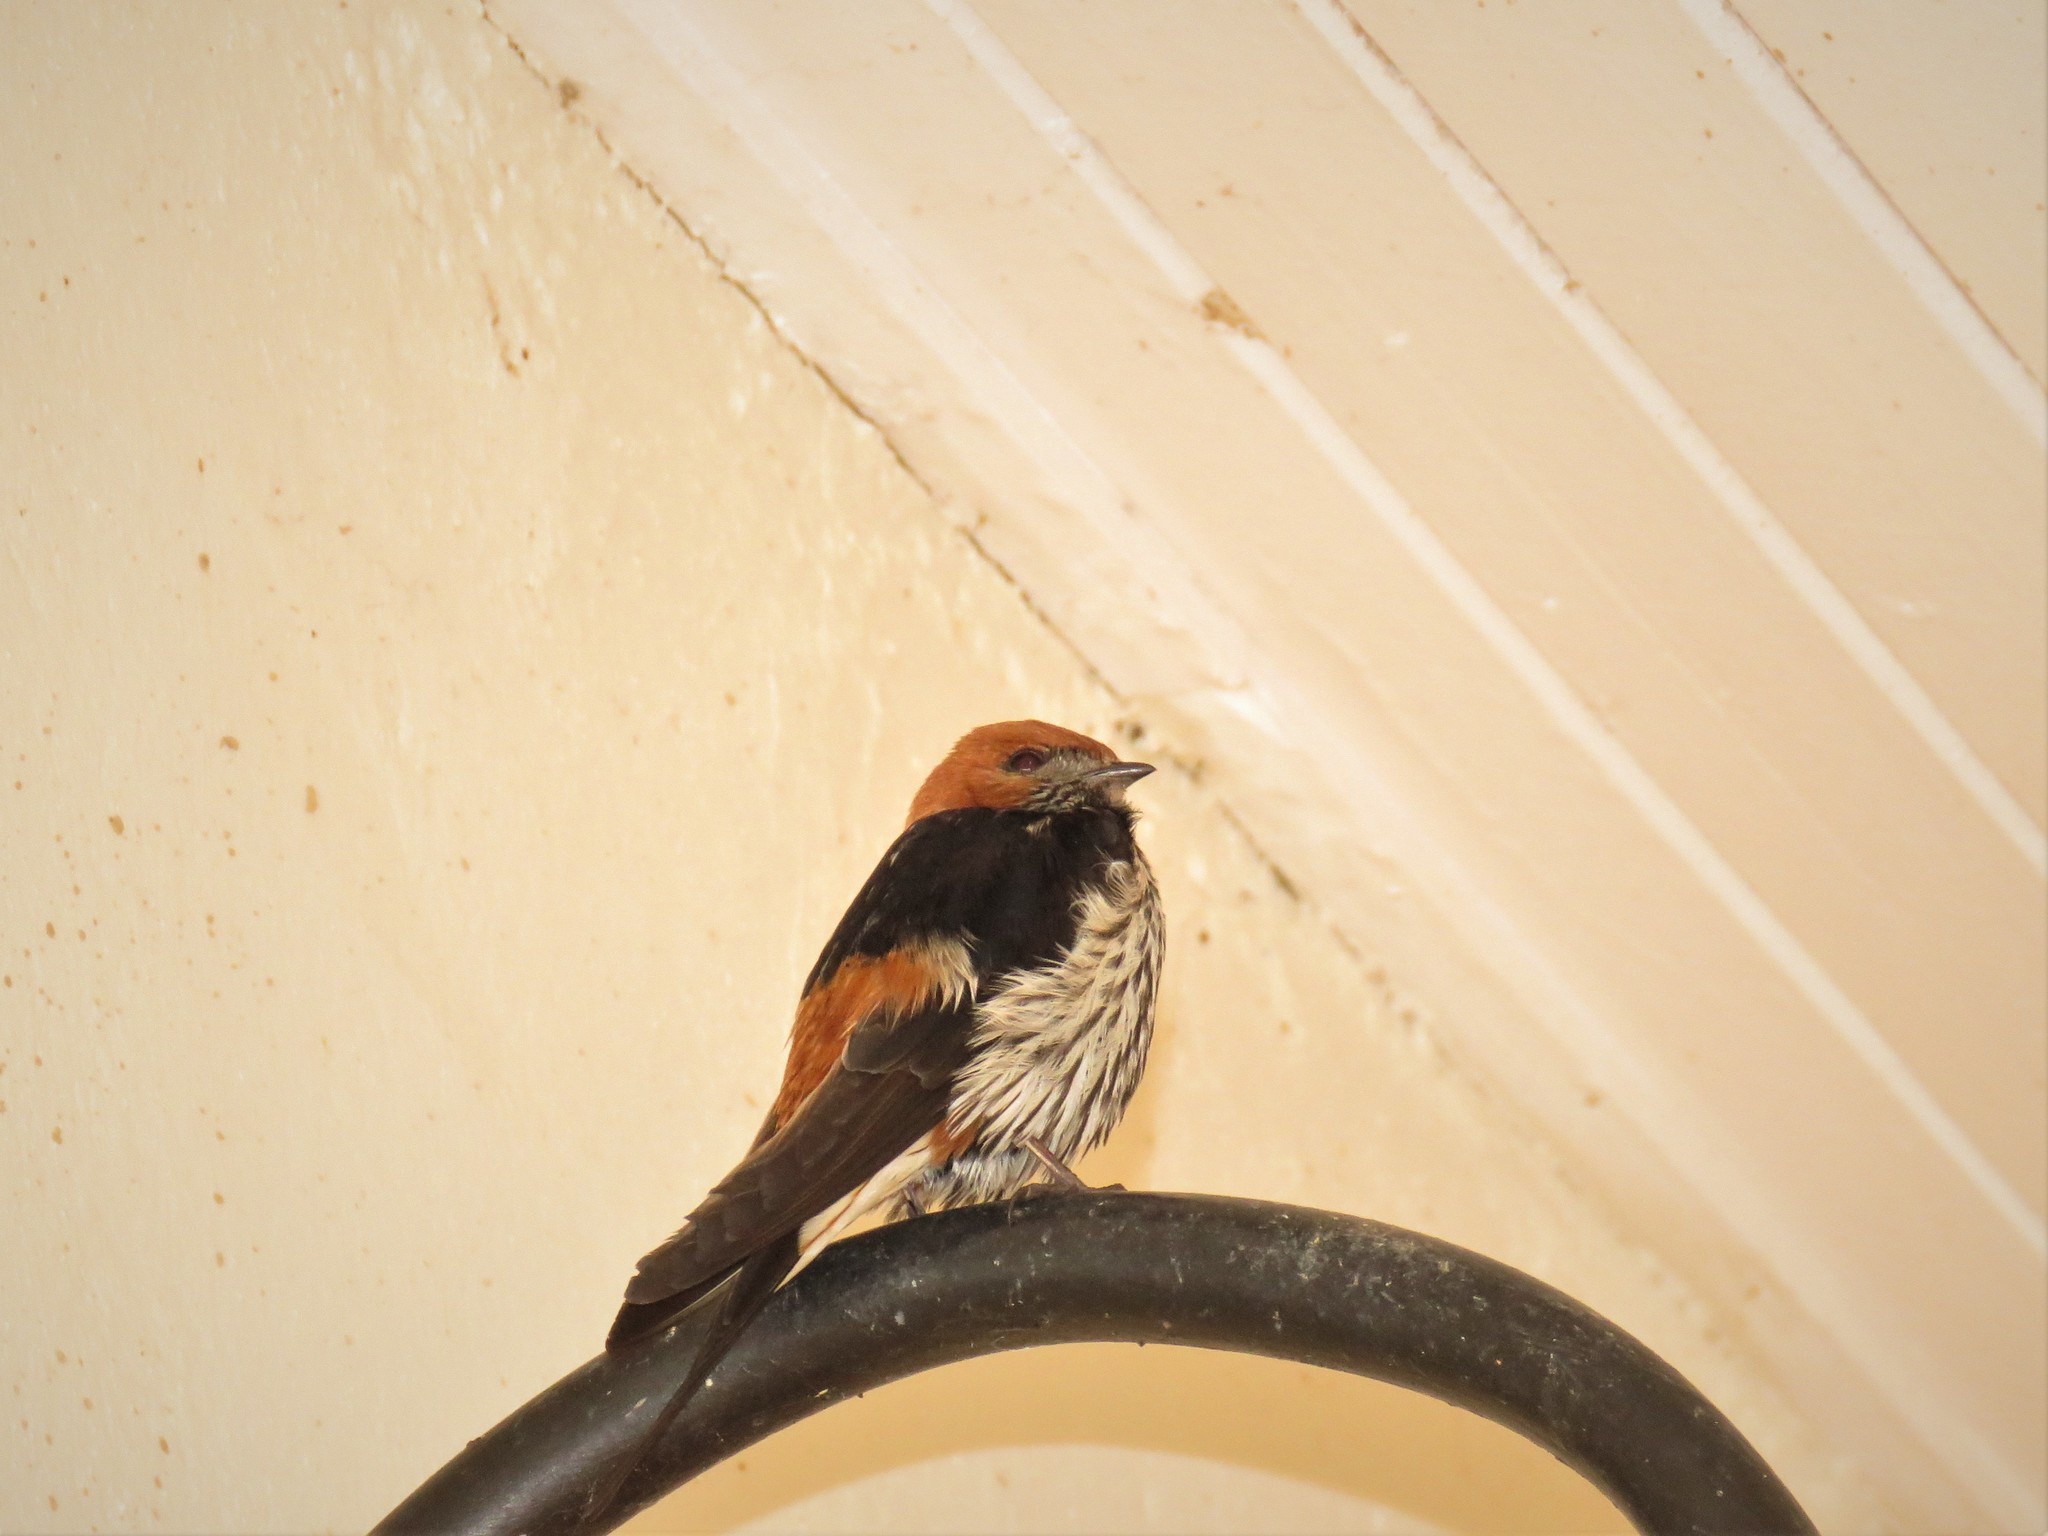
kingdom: Animalia
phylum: Chordata
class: Aves
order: Passeriformes
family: Hirundinidae
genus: Cecropis
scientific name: Cecropis abyssinica
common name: Lesser striped-swallow
